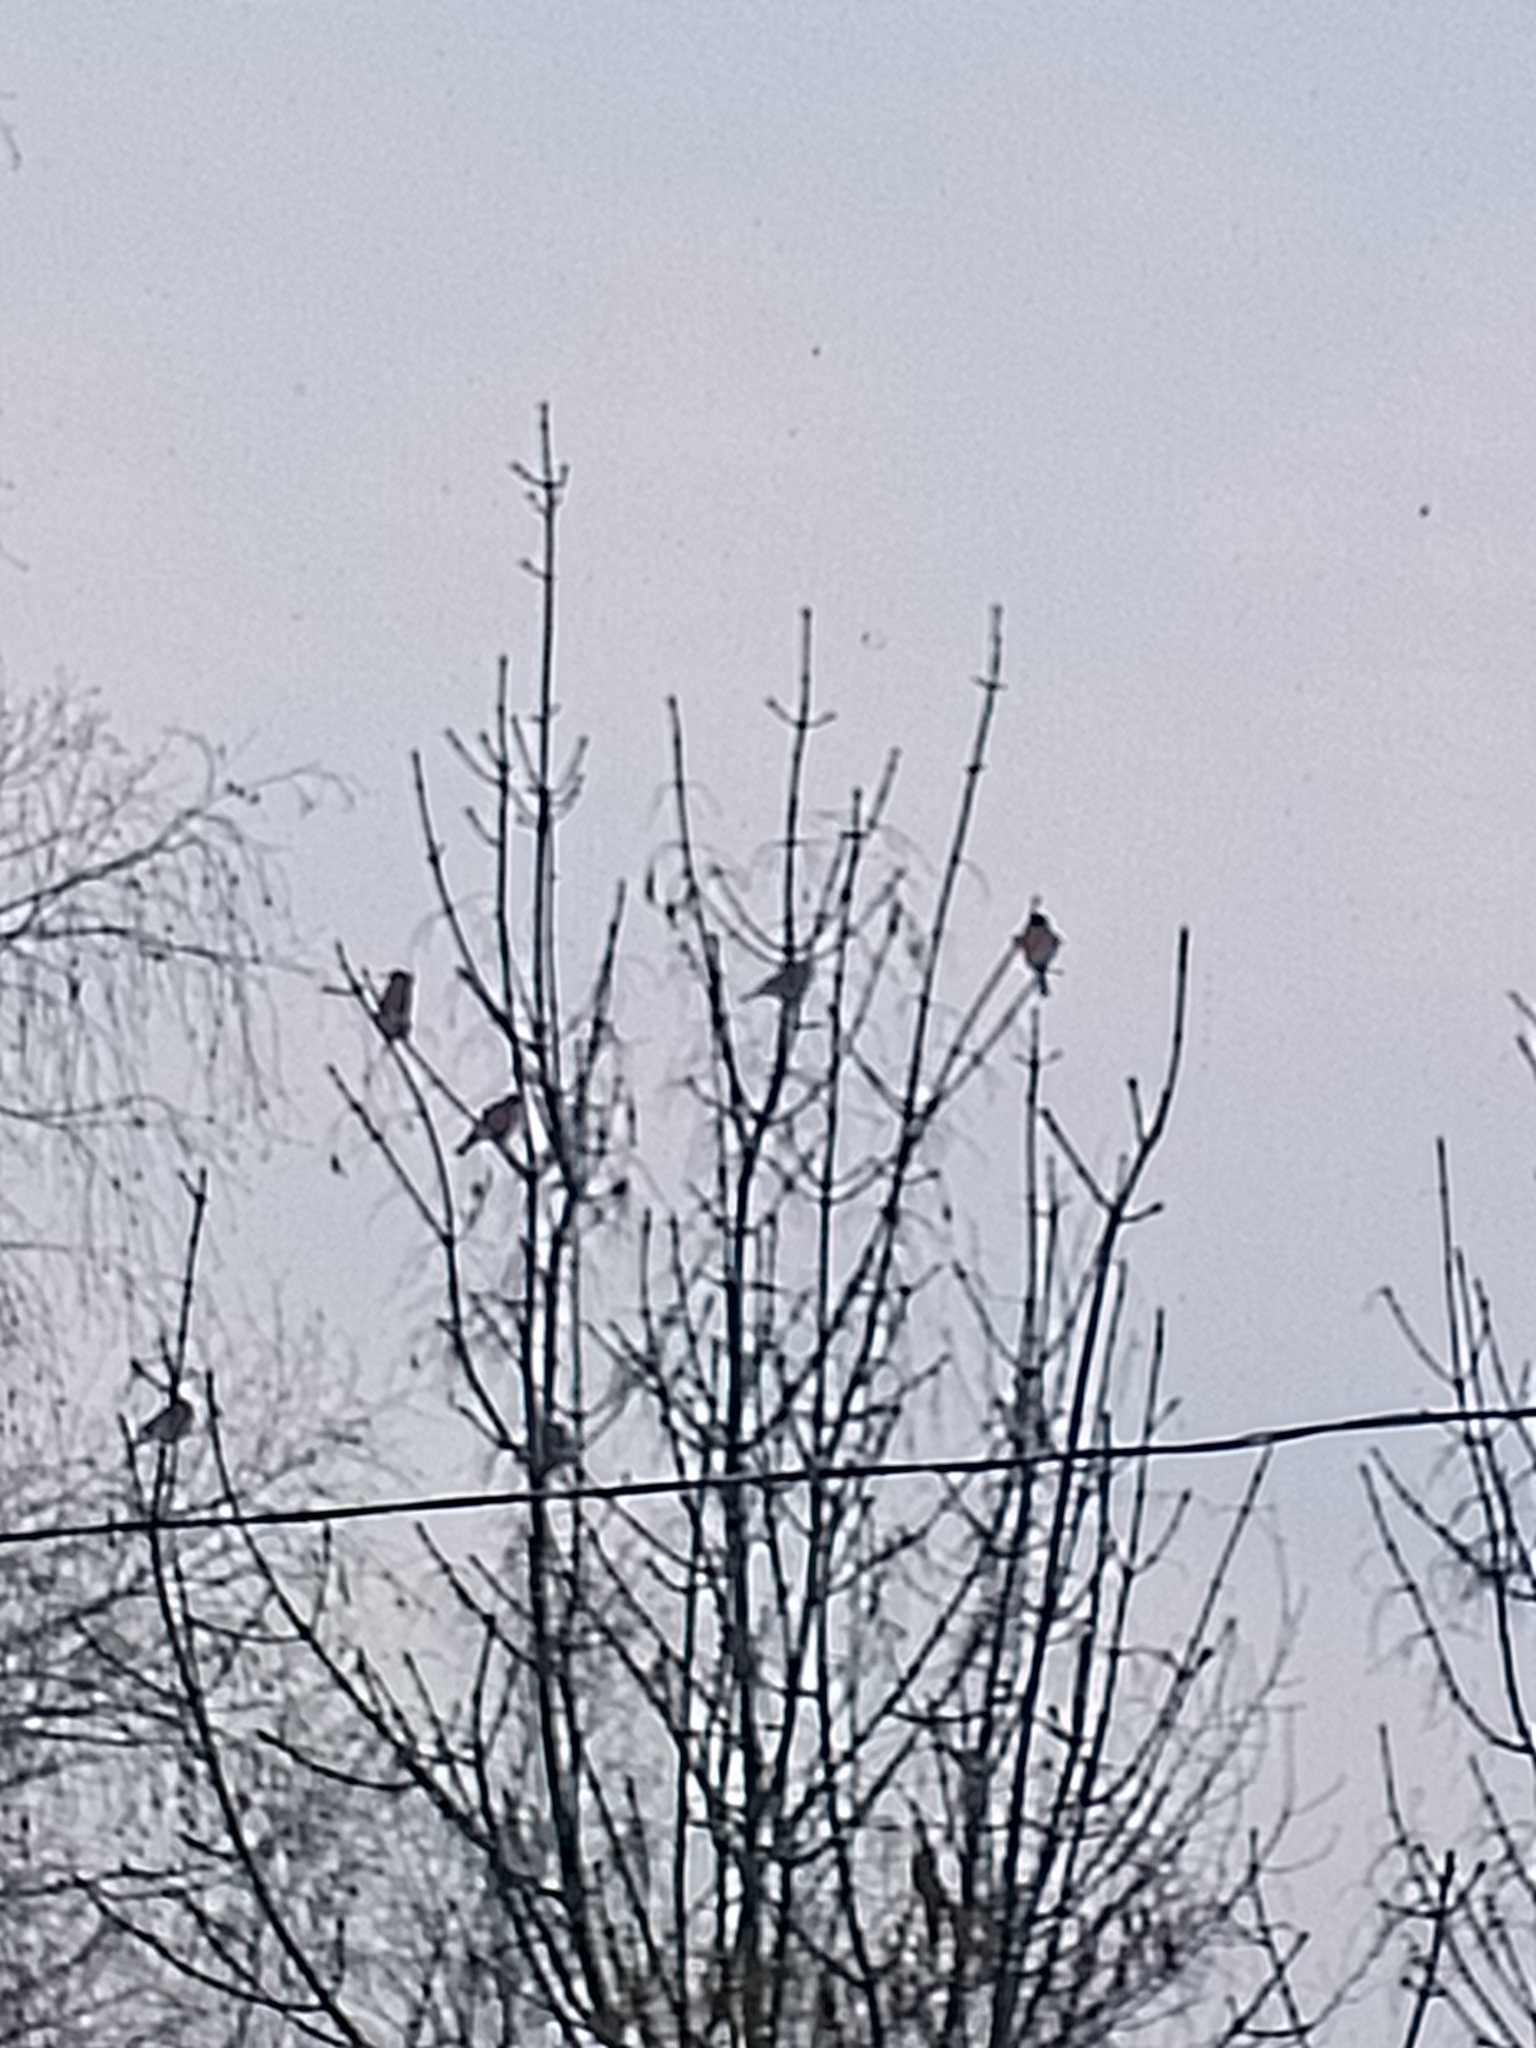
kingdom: Animalia
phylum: Chordata
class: Aves
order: Passeriformes
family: Fringillidae
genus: Pyrrhula
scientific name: Pyrrhula pyrrhula
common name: Eurasian bullfinch
